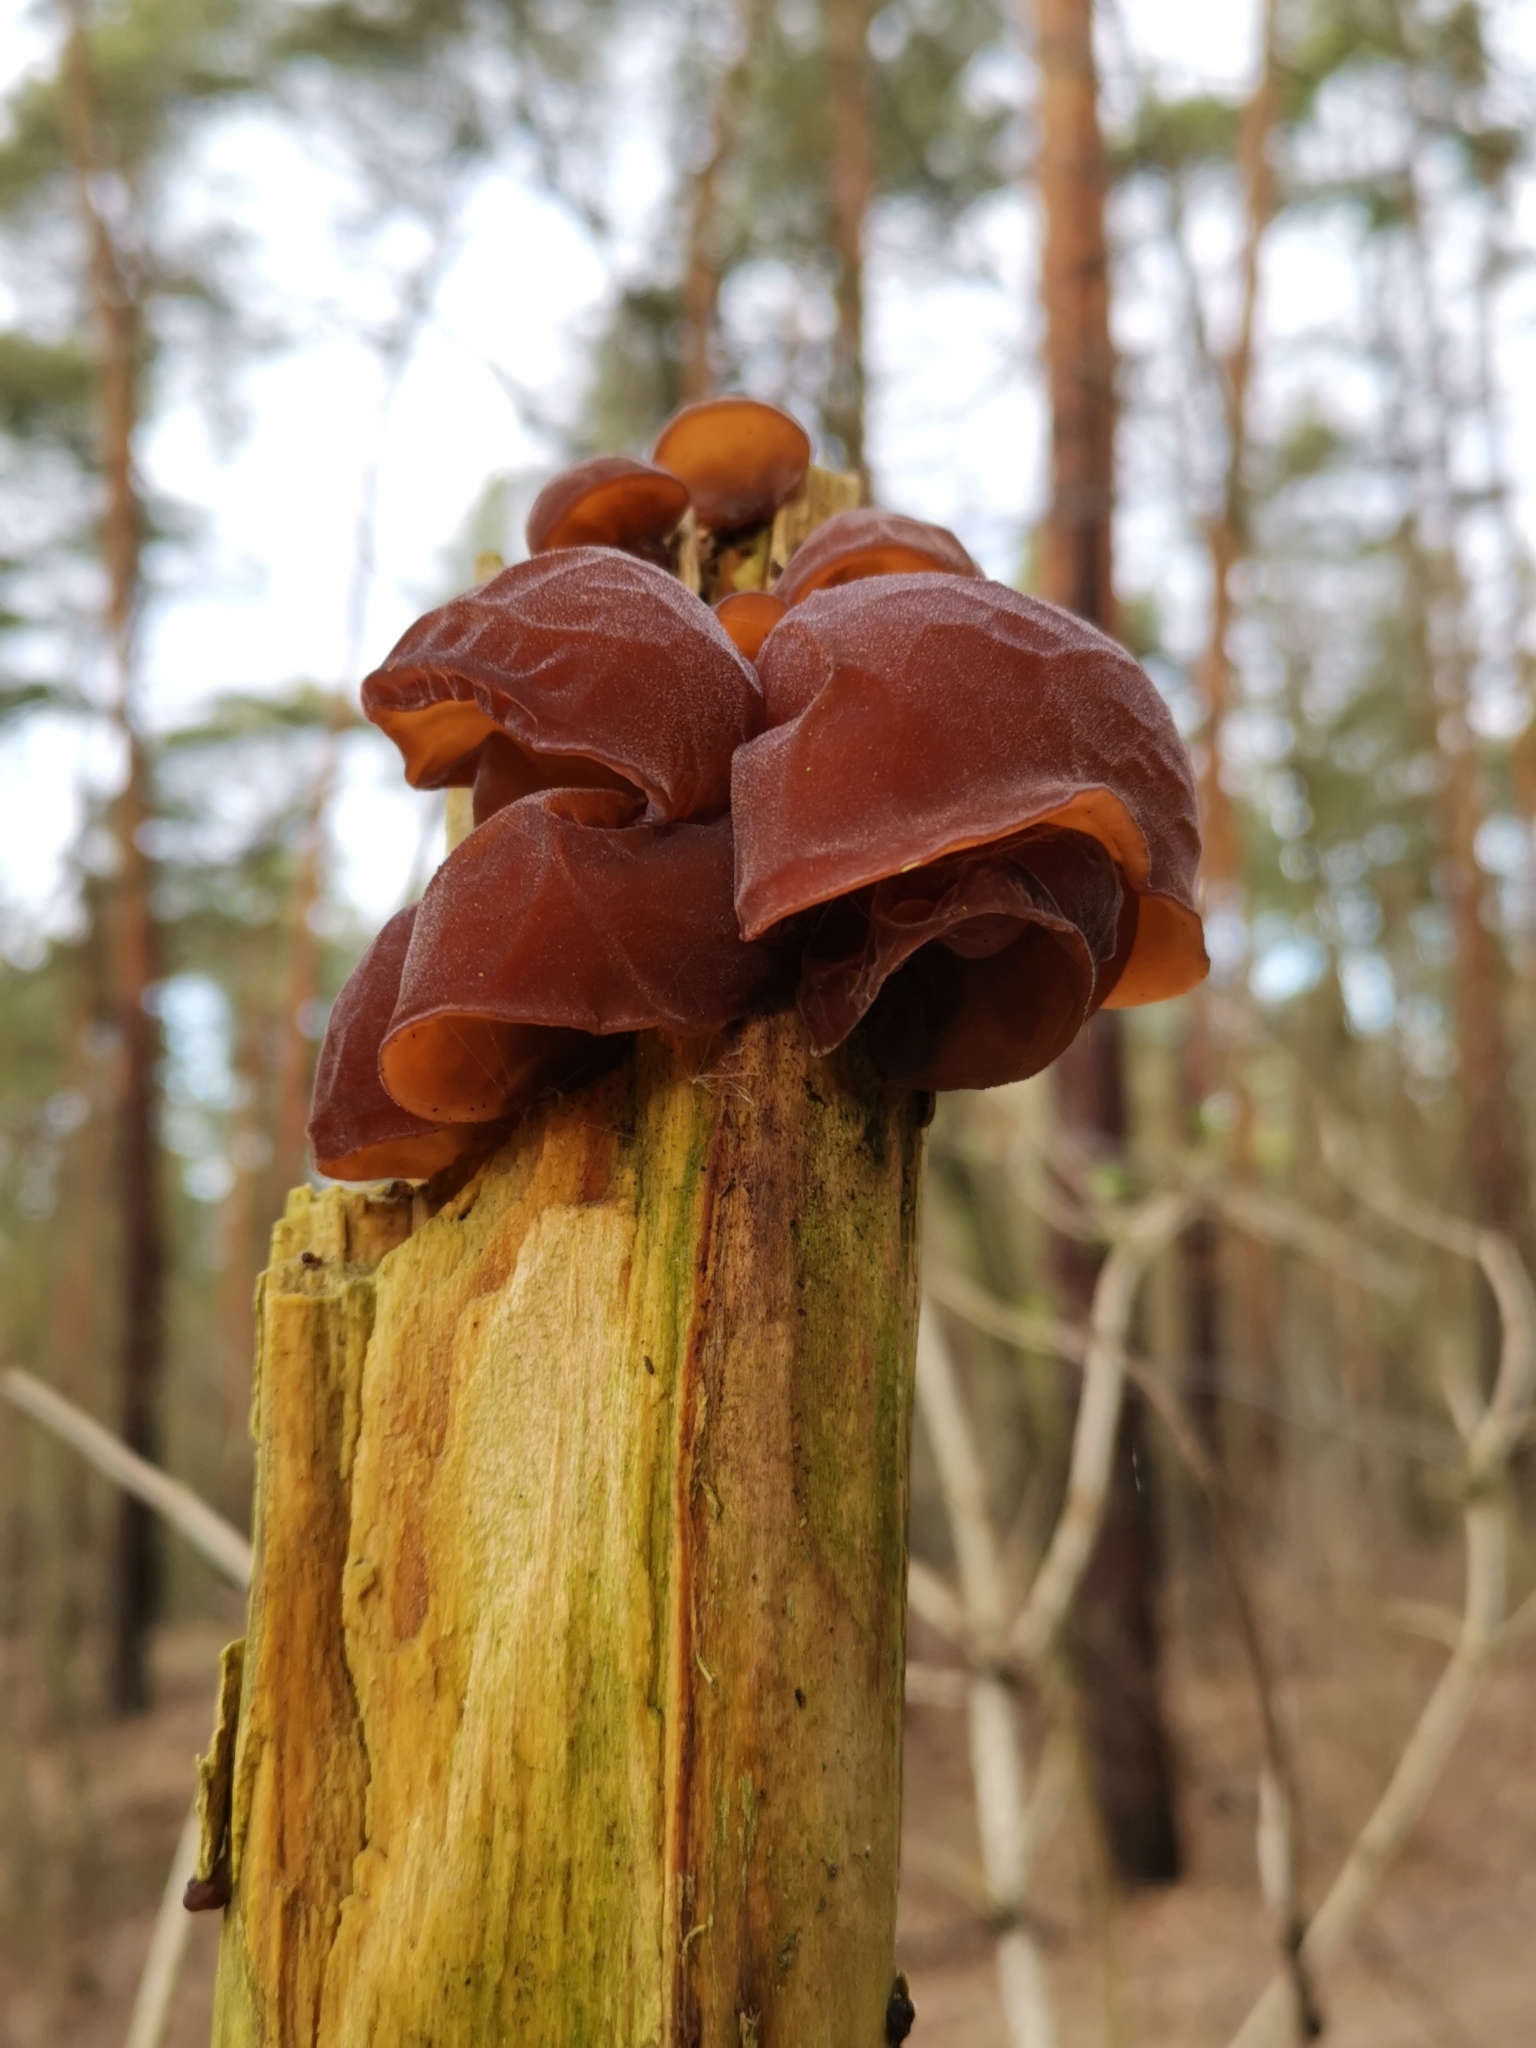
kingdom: Fungi
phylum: Basidiomycota
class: Agaricomycetes
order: Auriculariales
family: Auriculariaceae
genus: Auricularia
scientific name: Auricularia auricula-judae
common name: Jelly ear
